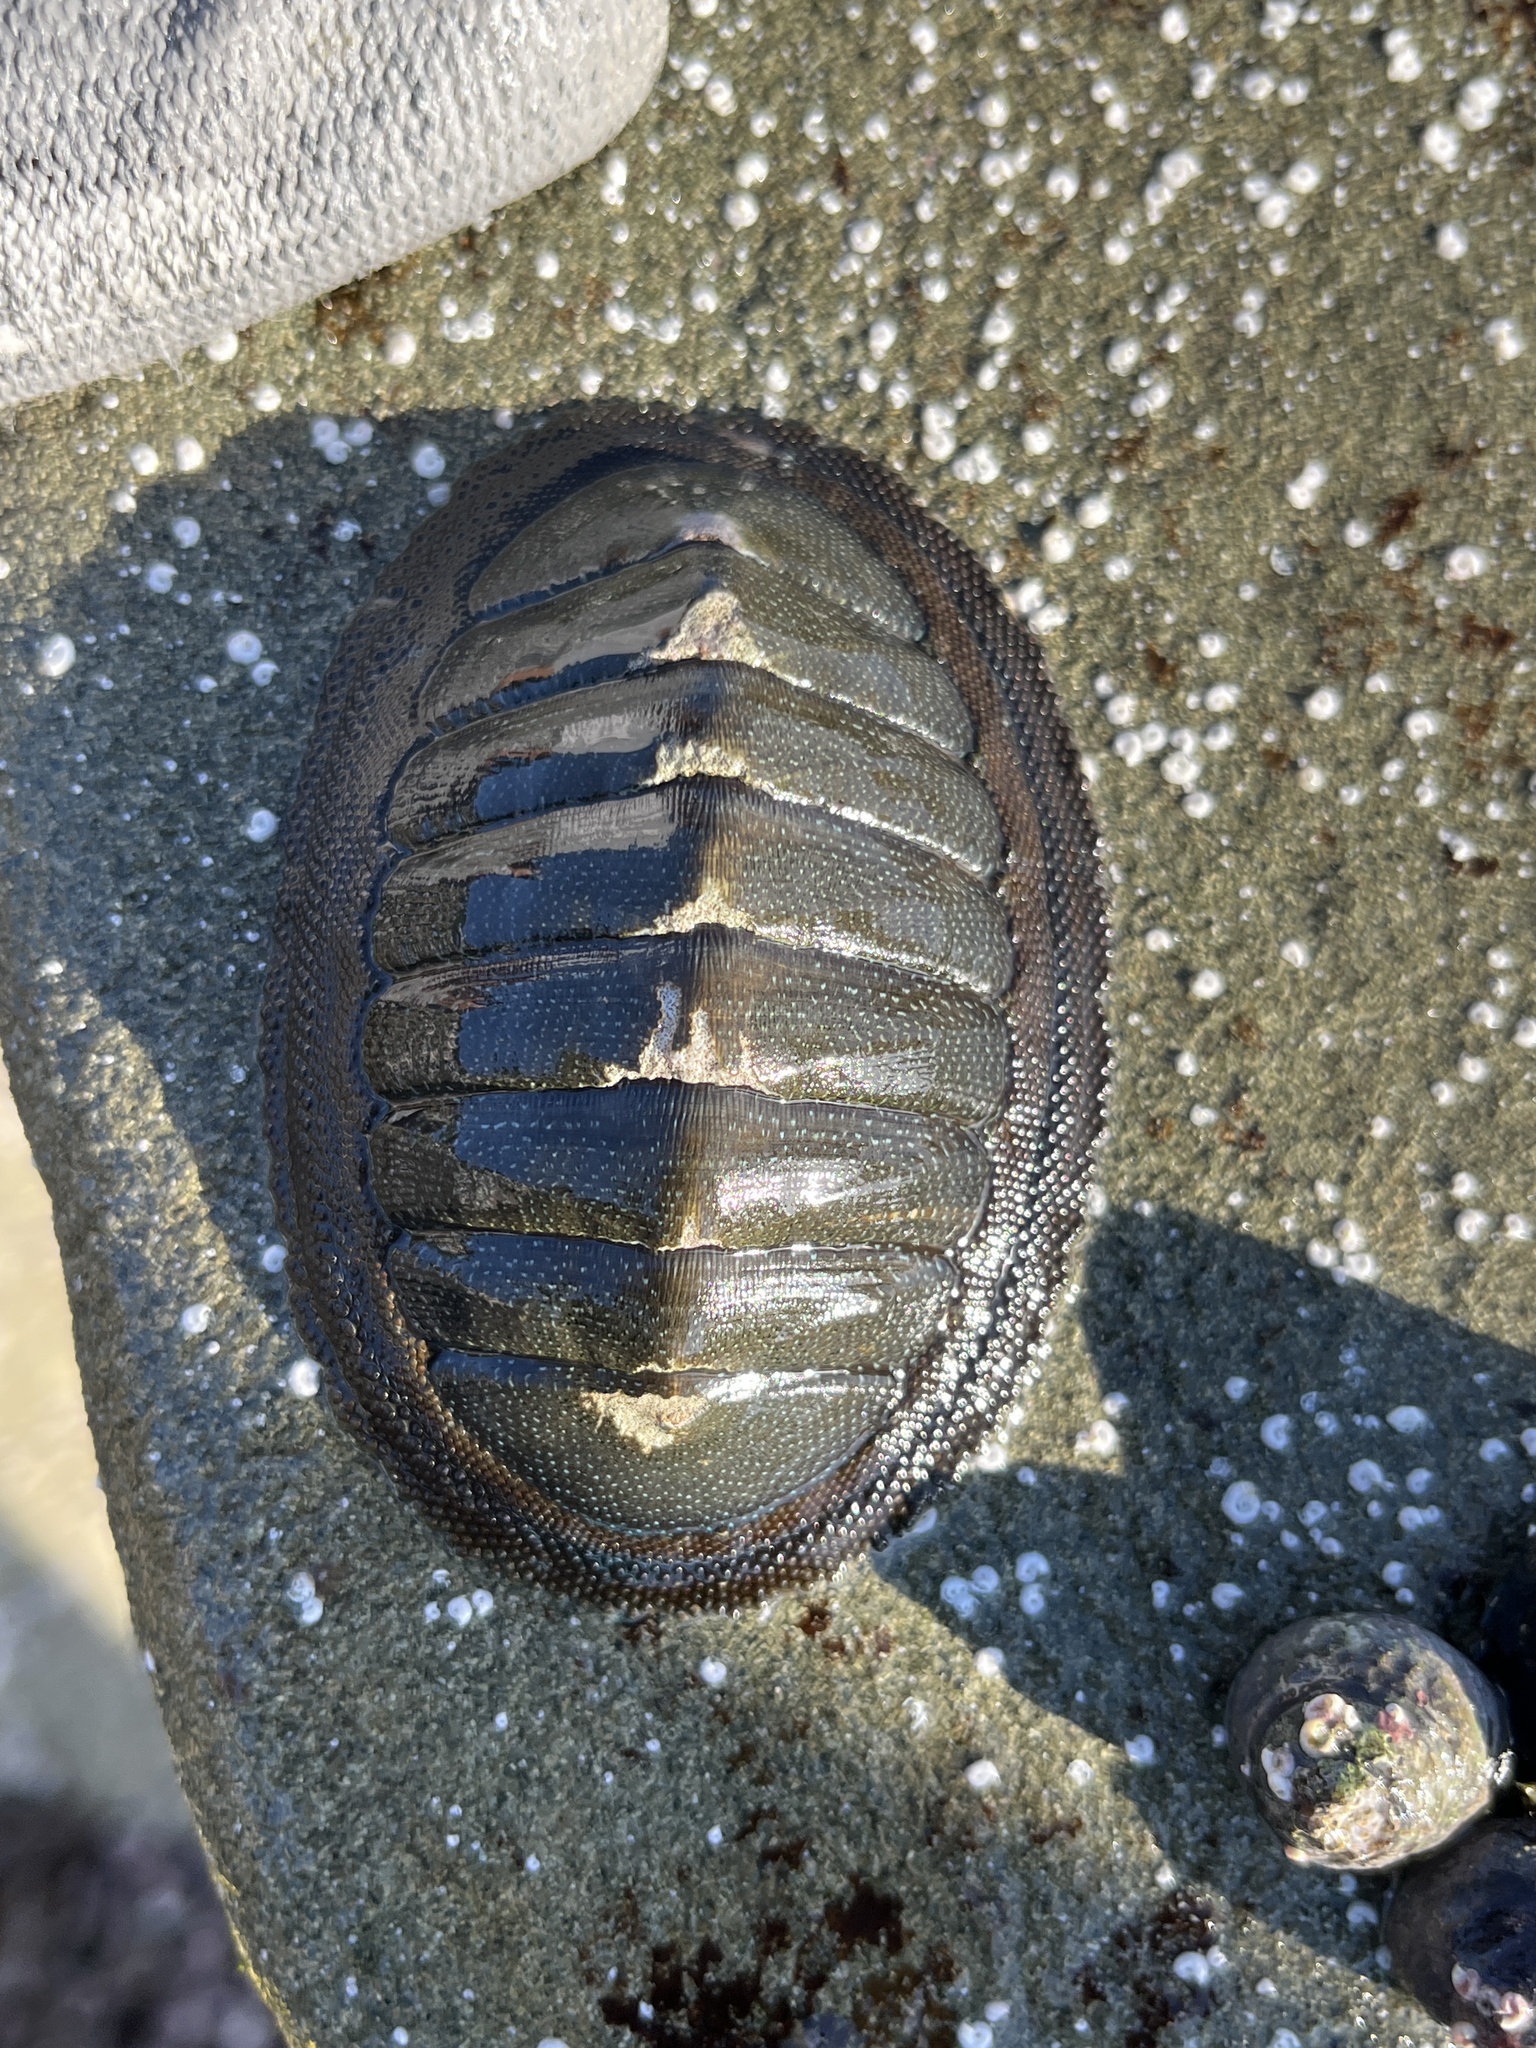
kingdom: Animalia
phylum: Mollusca
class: Polyplacophora
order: Chitonida
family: Chitonidae
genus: Chiton
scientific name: Chiton magnificus
